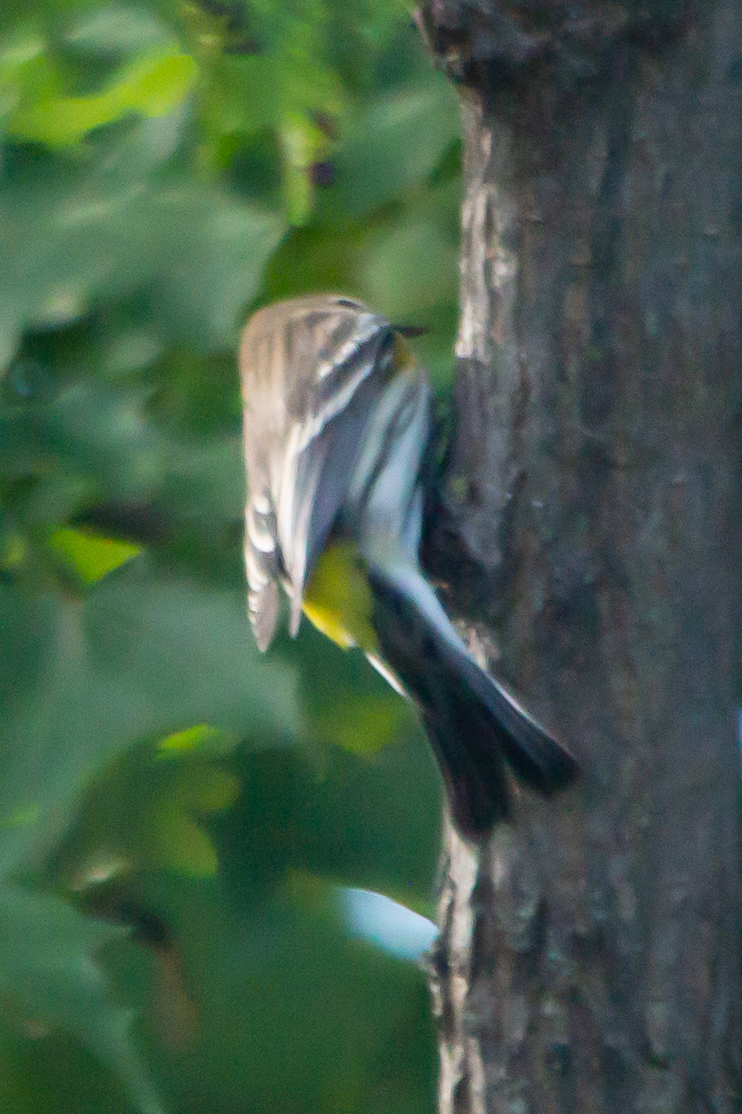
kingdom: Animalia
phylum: Chordata
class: Aves
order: Passeriformes
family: Parulidae
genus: Setophaga
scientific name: Setophaga coronata
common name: Myrtle warbler
